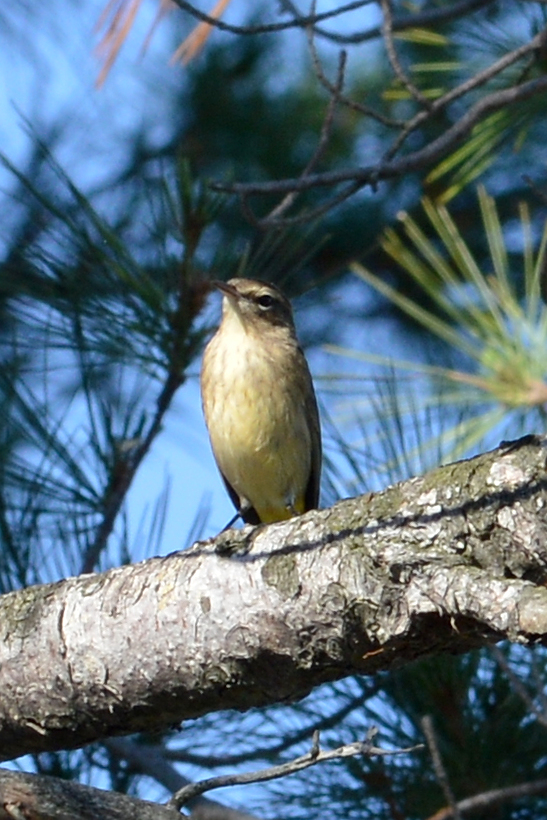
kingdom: Animalia
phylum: Chordata
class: Aves
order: Passeriformes
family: Parulidae
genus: Setophaga
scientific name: Setophaga palmarum
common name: Palm warbler
